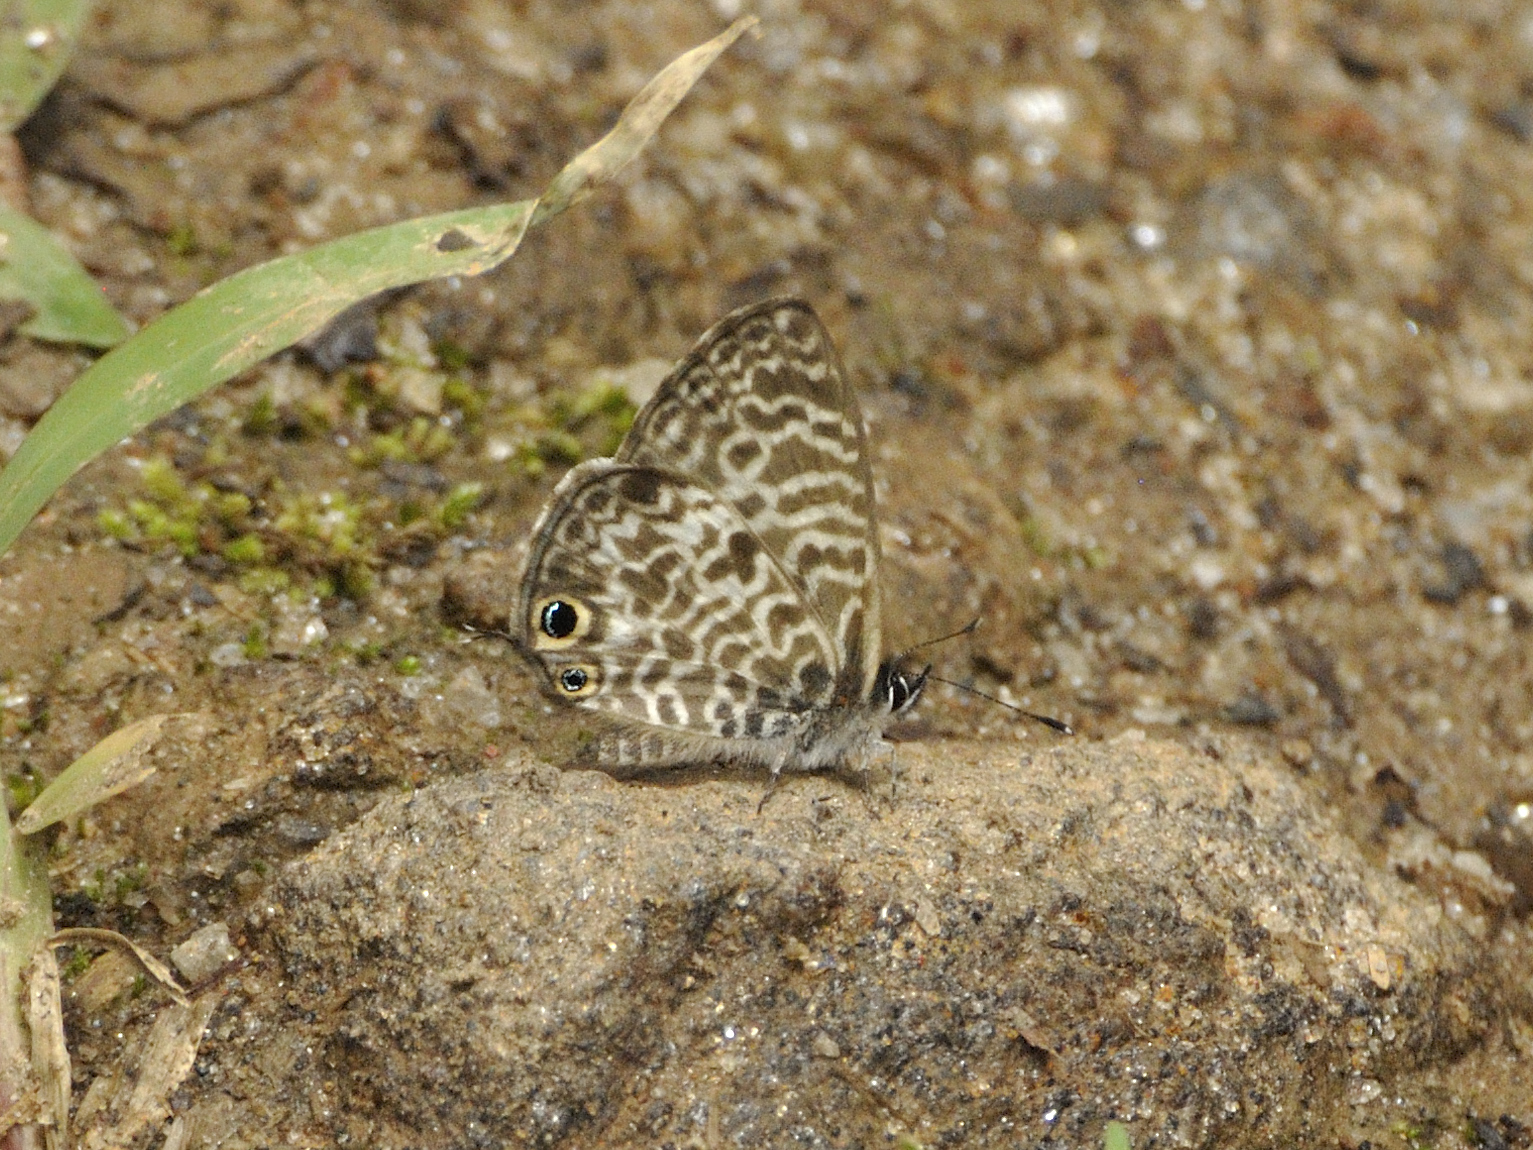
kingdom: Animalia
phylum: Arthropoda
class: Insecta
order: Lepidoptera
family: Lycaenidae
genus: Leptotes
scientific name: Leptotes rabenafer
